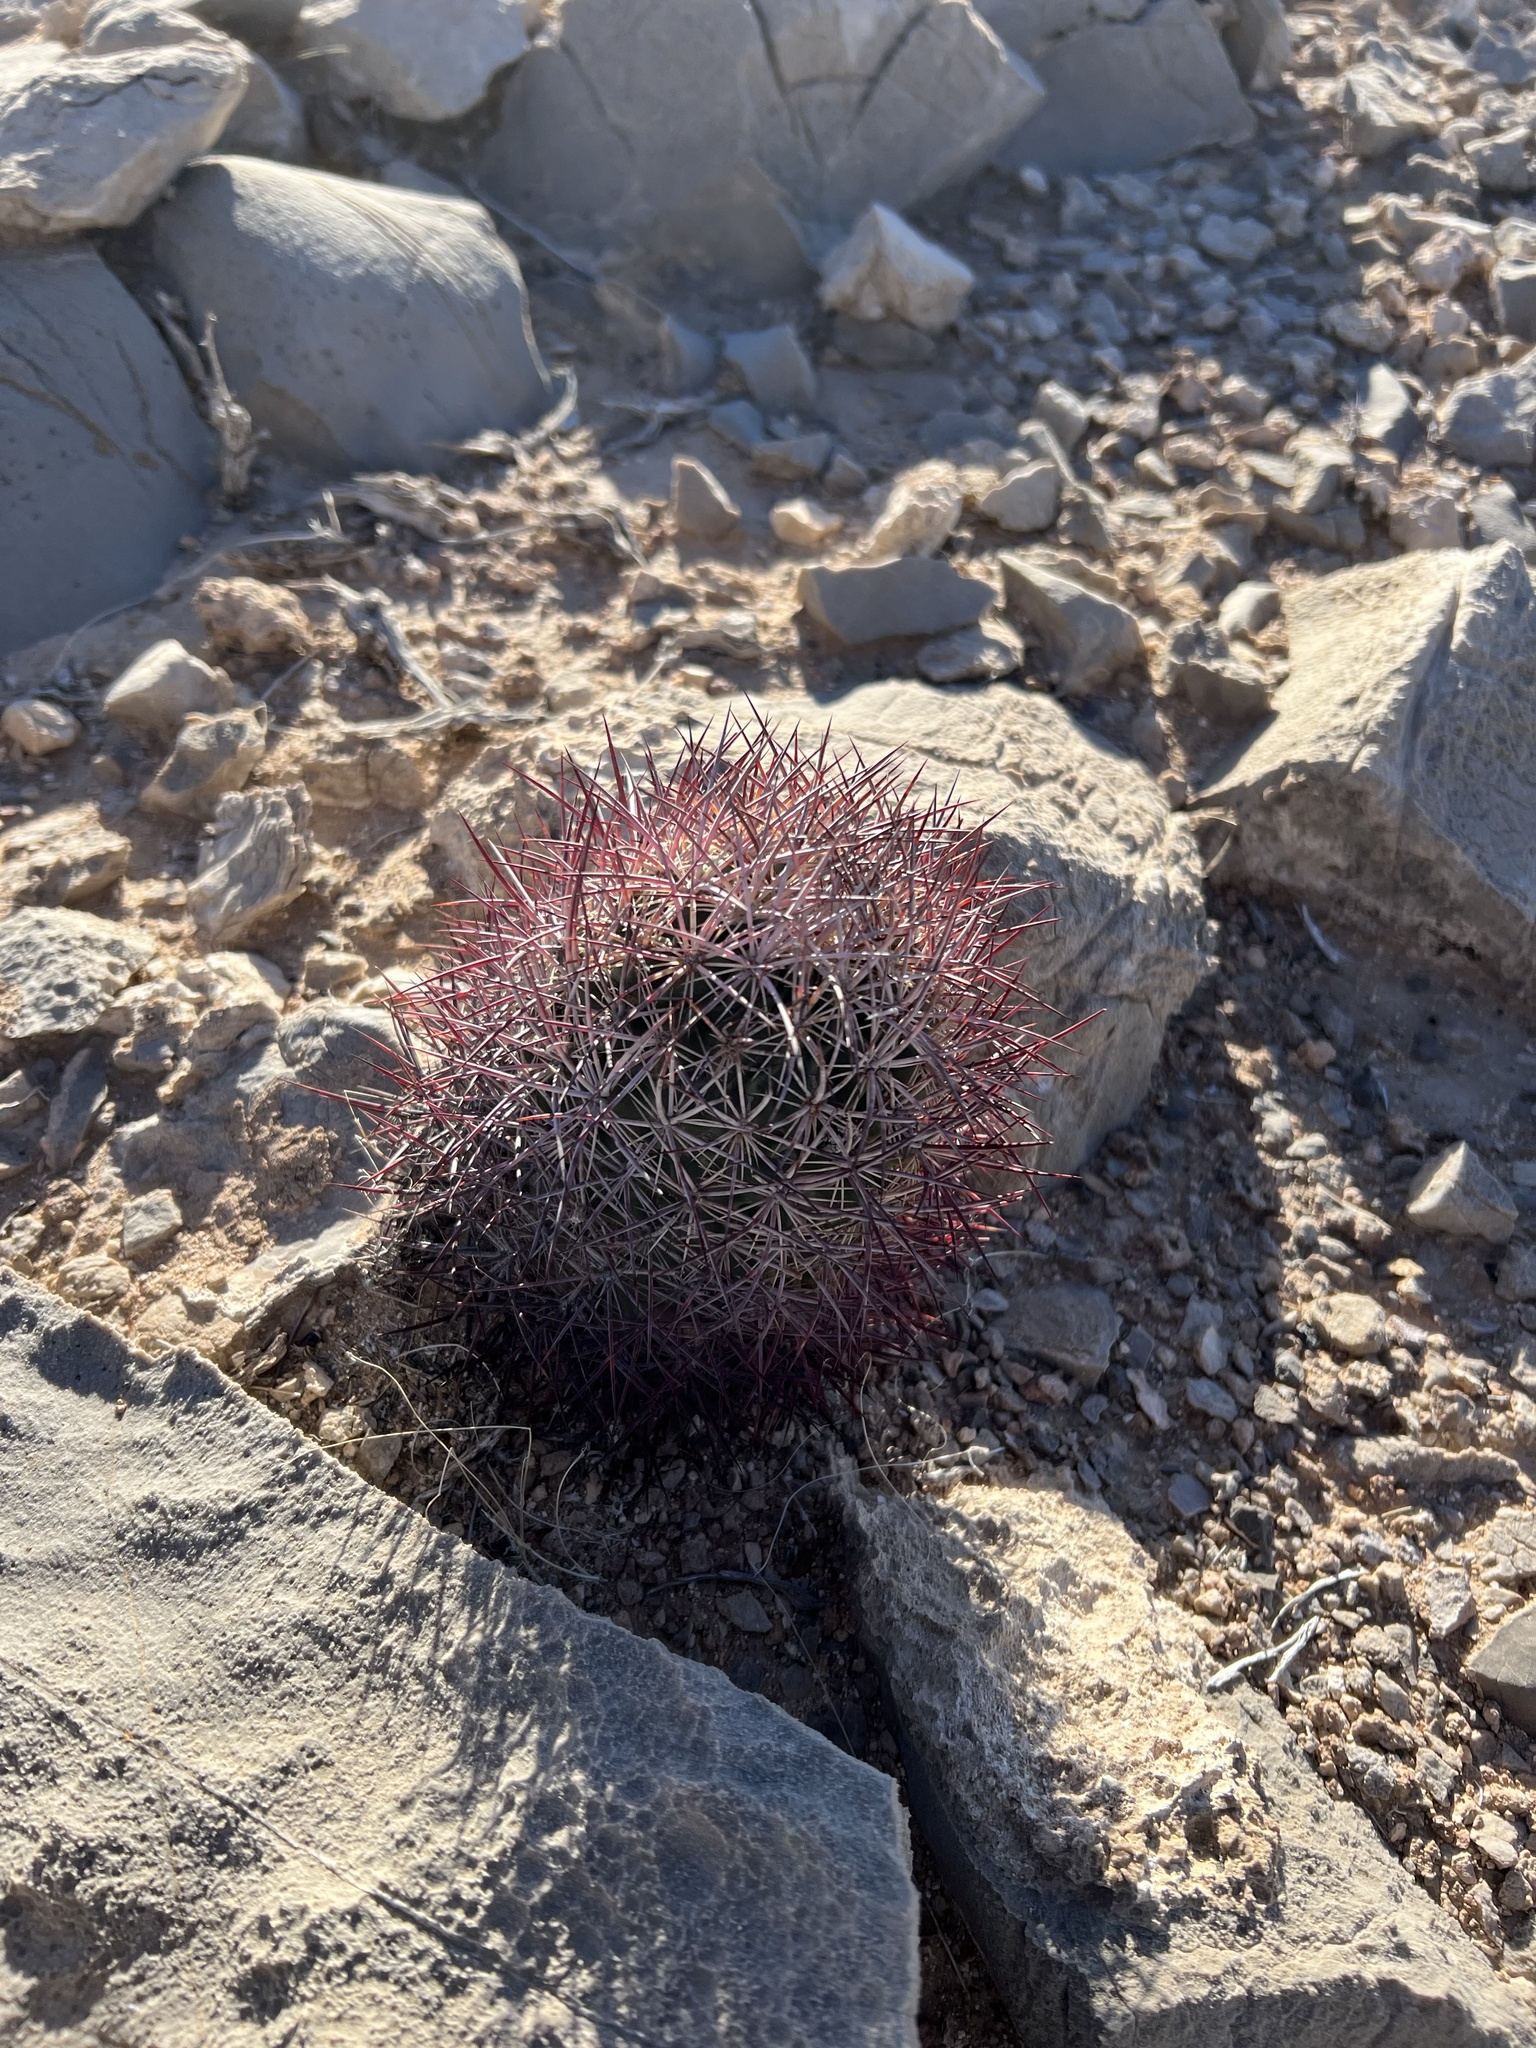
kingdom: Plantae
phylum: Tracheophyta
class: Magnoliopsida
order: Caryophyllales
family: Cactaceae
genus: Sclerocactus
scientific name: Sclerocactus johnsonii
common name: Eight-spine fishhook cactus
